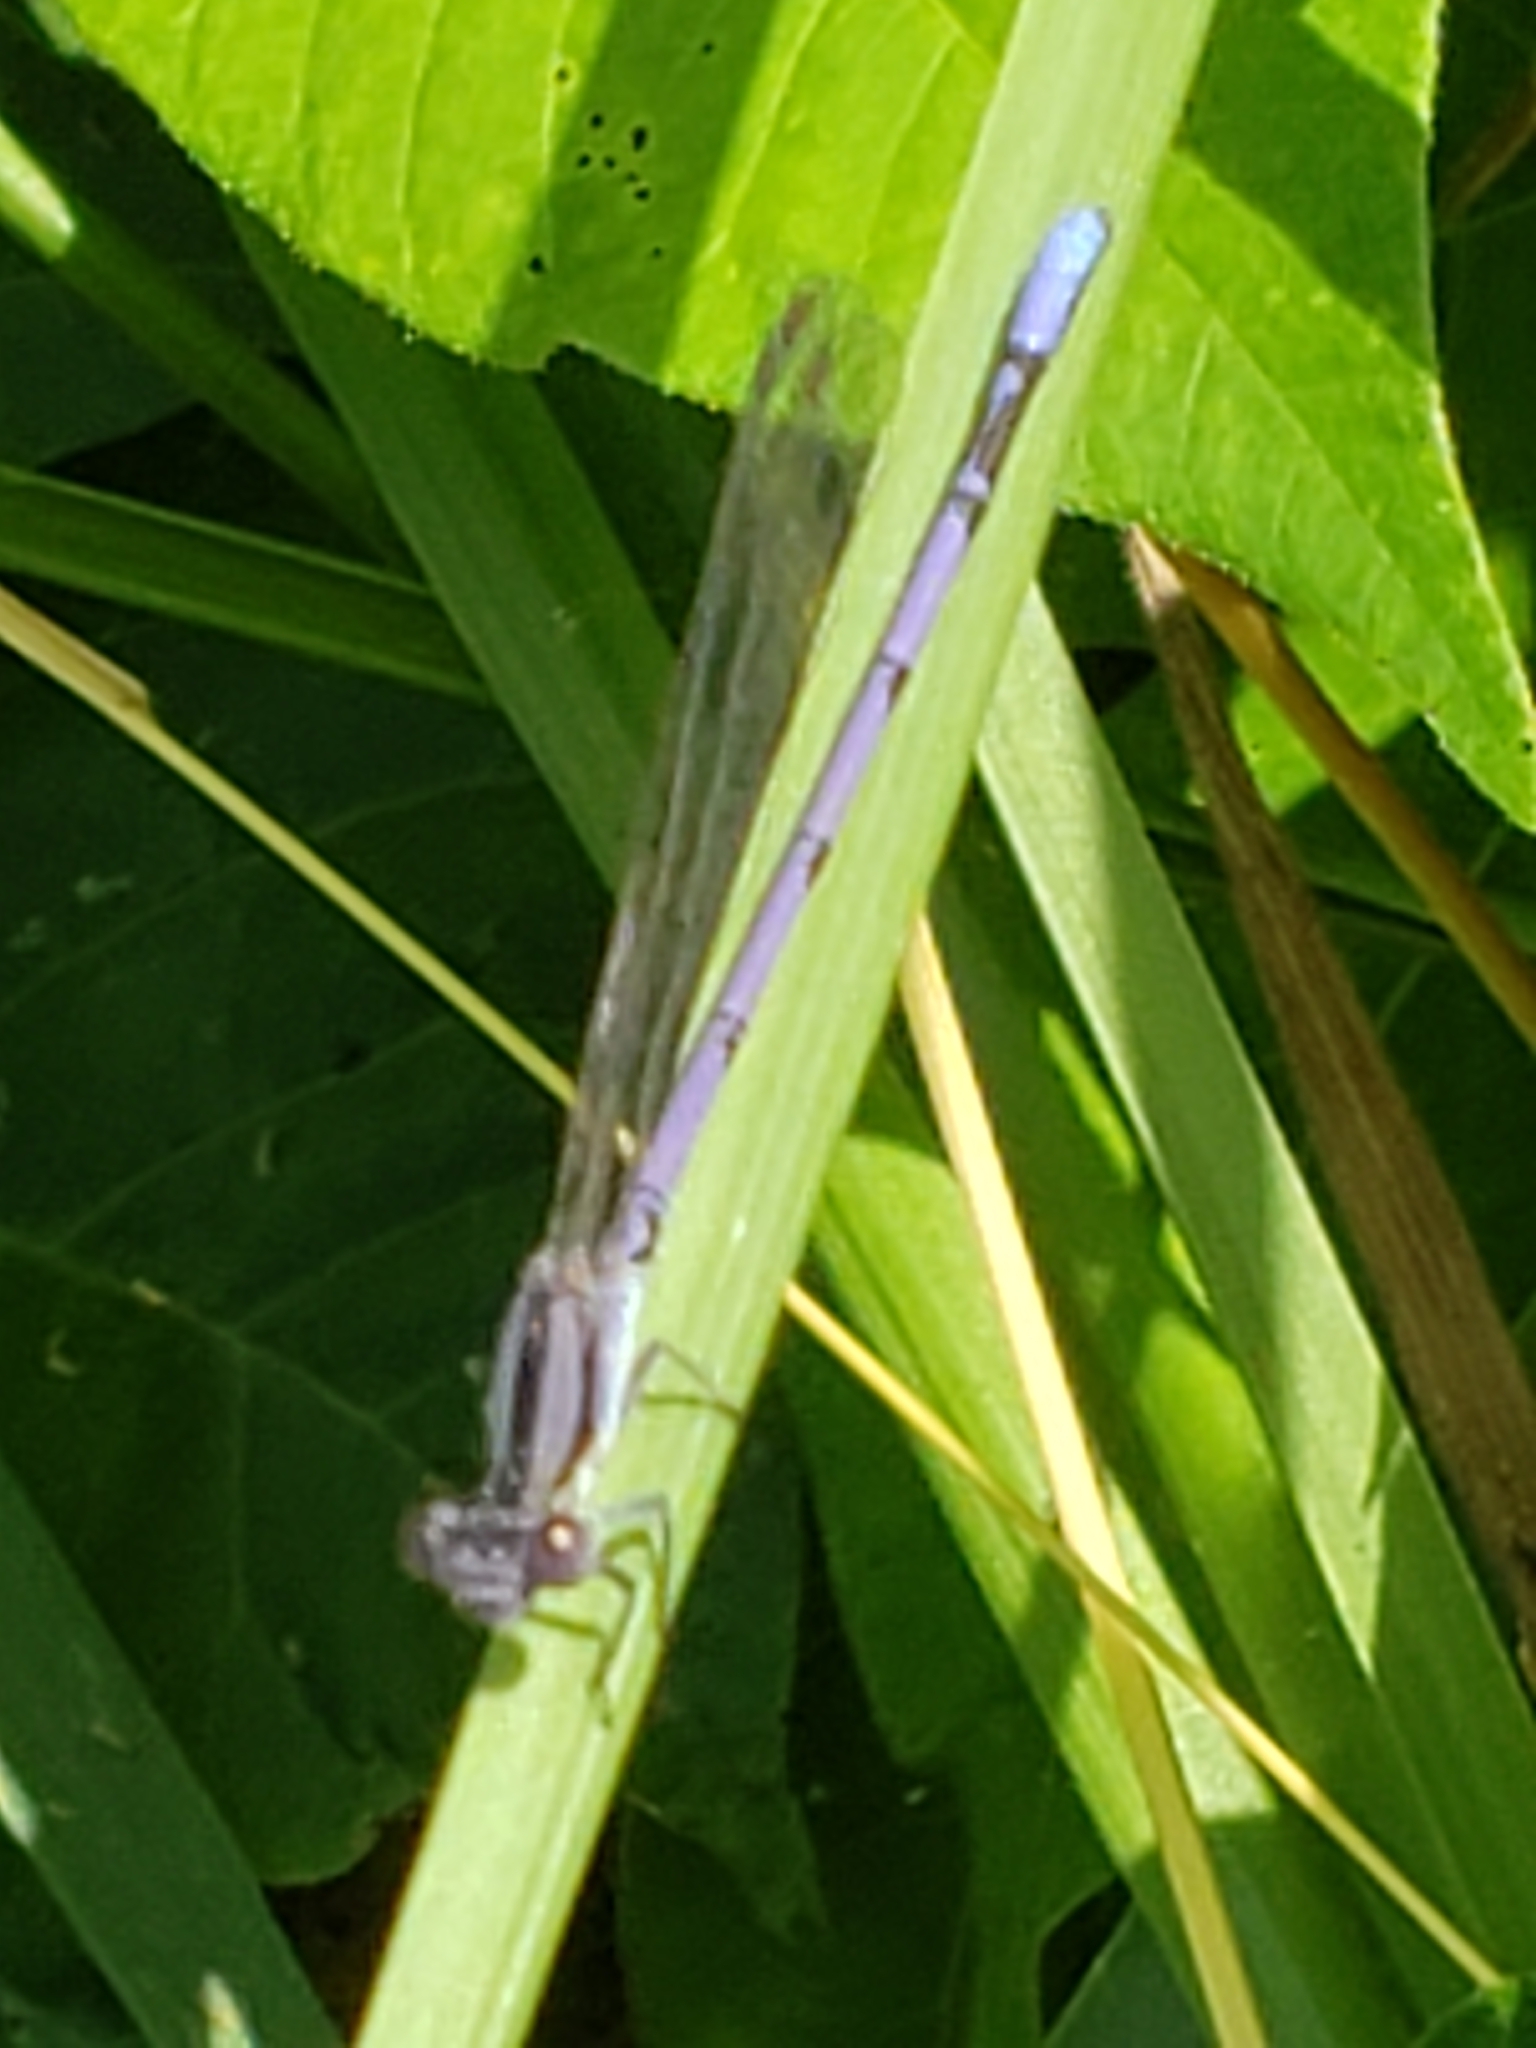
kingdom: Animalia
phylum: Arthropoda
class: Insecta
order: Odonata
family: Coenagrionidae
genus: Argia
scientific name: Argia fumipennis
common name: Variable dancer
